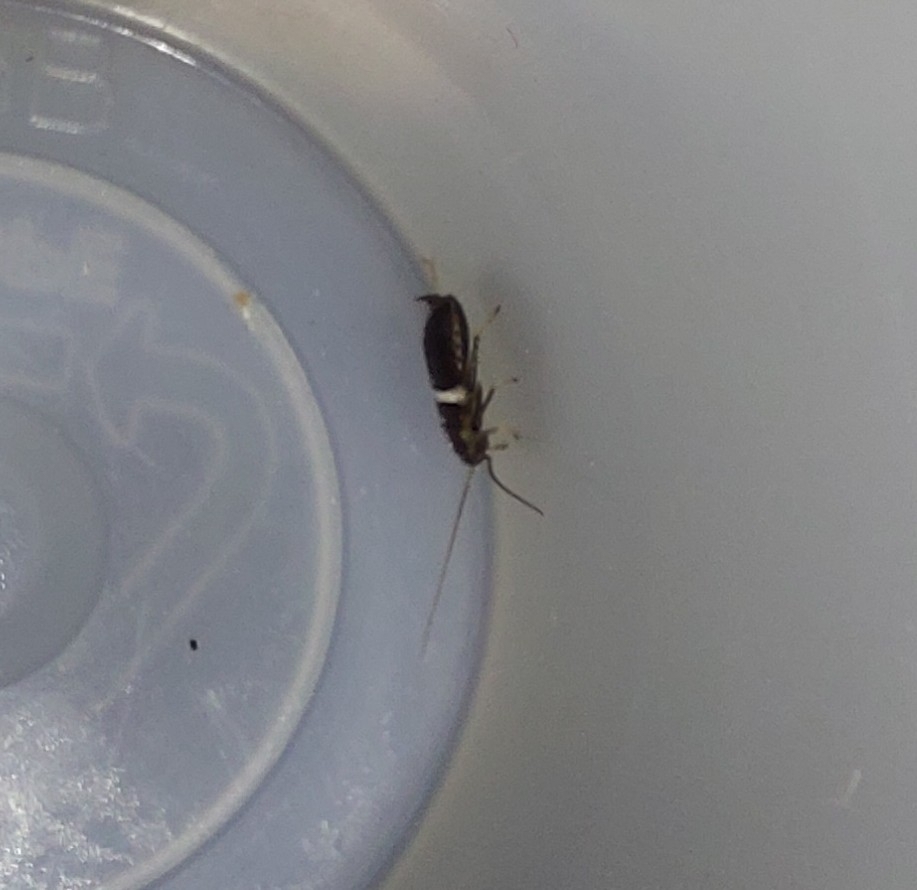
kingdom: Animalia
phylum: Arthropoda
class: Insecta
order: Blattodea
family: Ectobiidae
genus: Planuncus
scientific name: Planuncus tingitanus
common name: Variable cockroach
